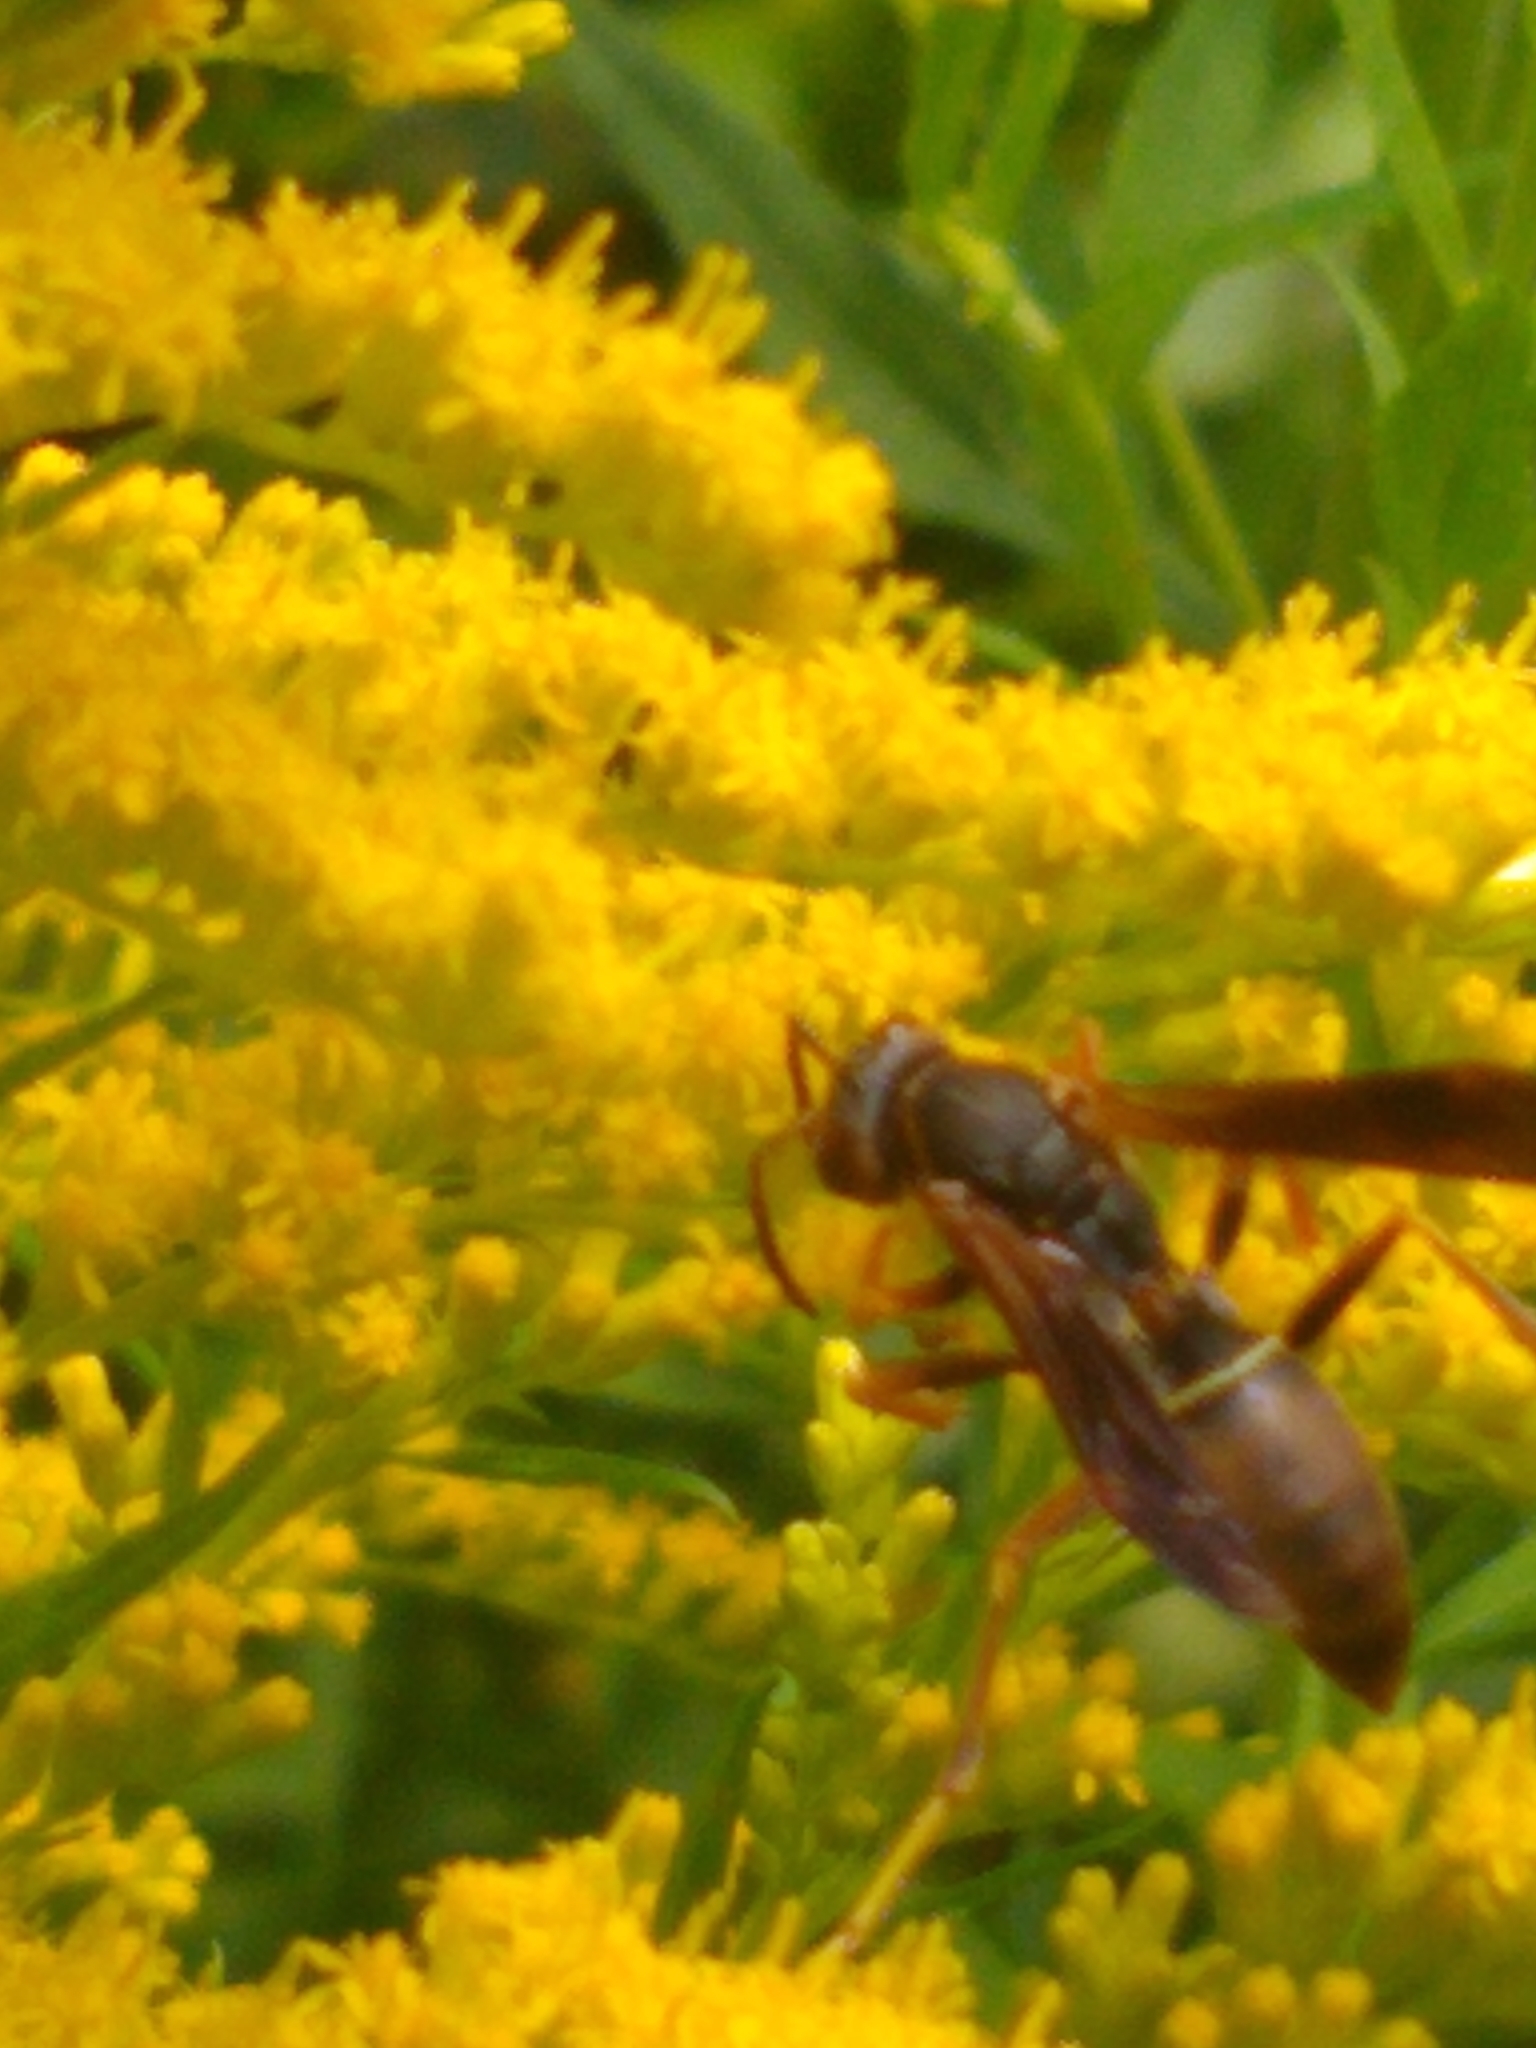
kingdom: Animalia
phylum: Arthropoda
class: Insecta
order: Hymenoptera
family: Vespidae
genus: Fuscopolistes
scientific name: Fuscopolistes
